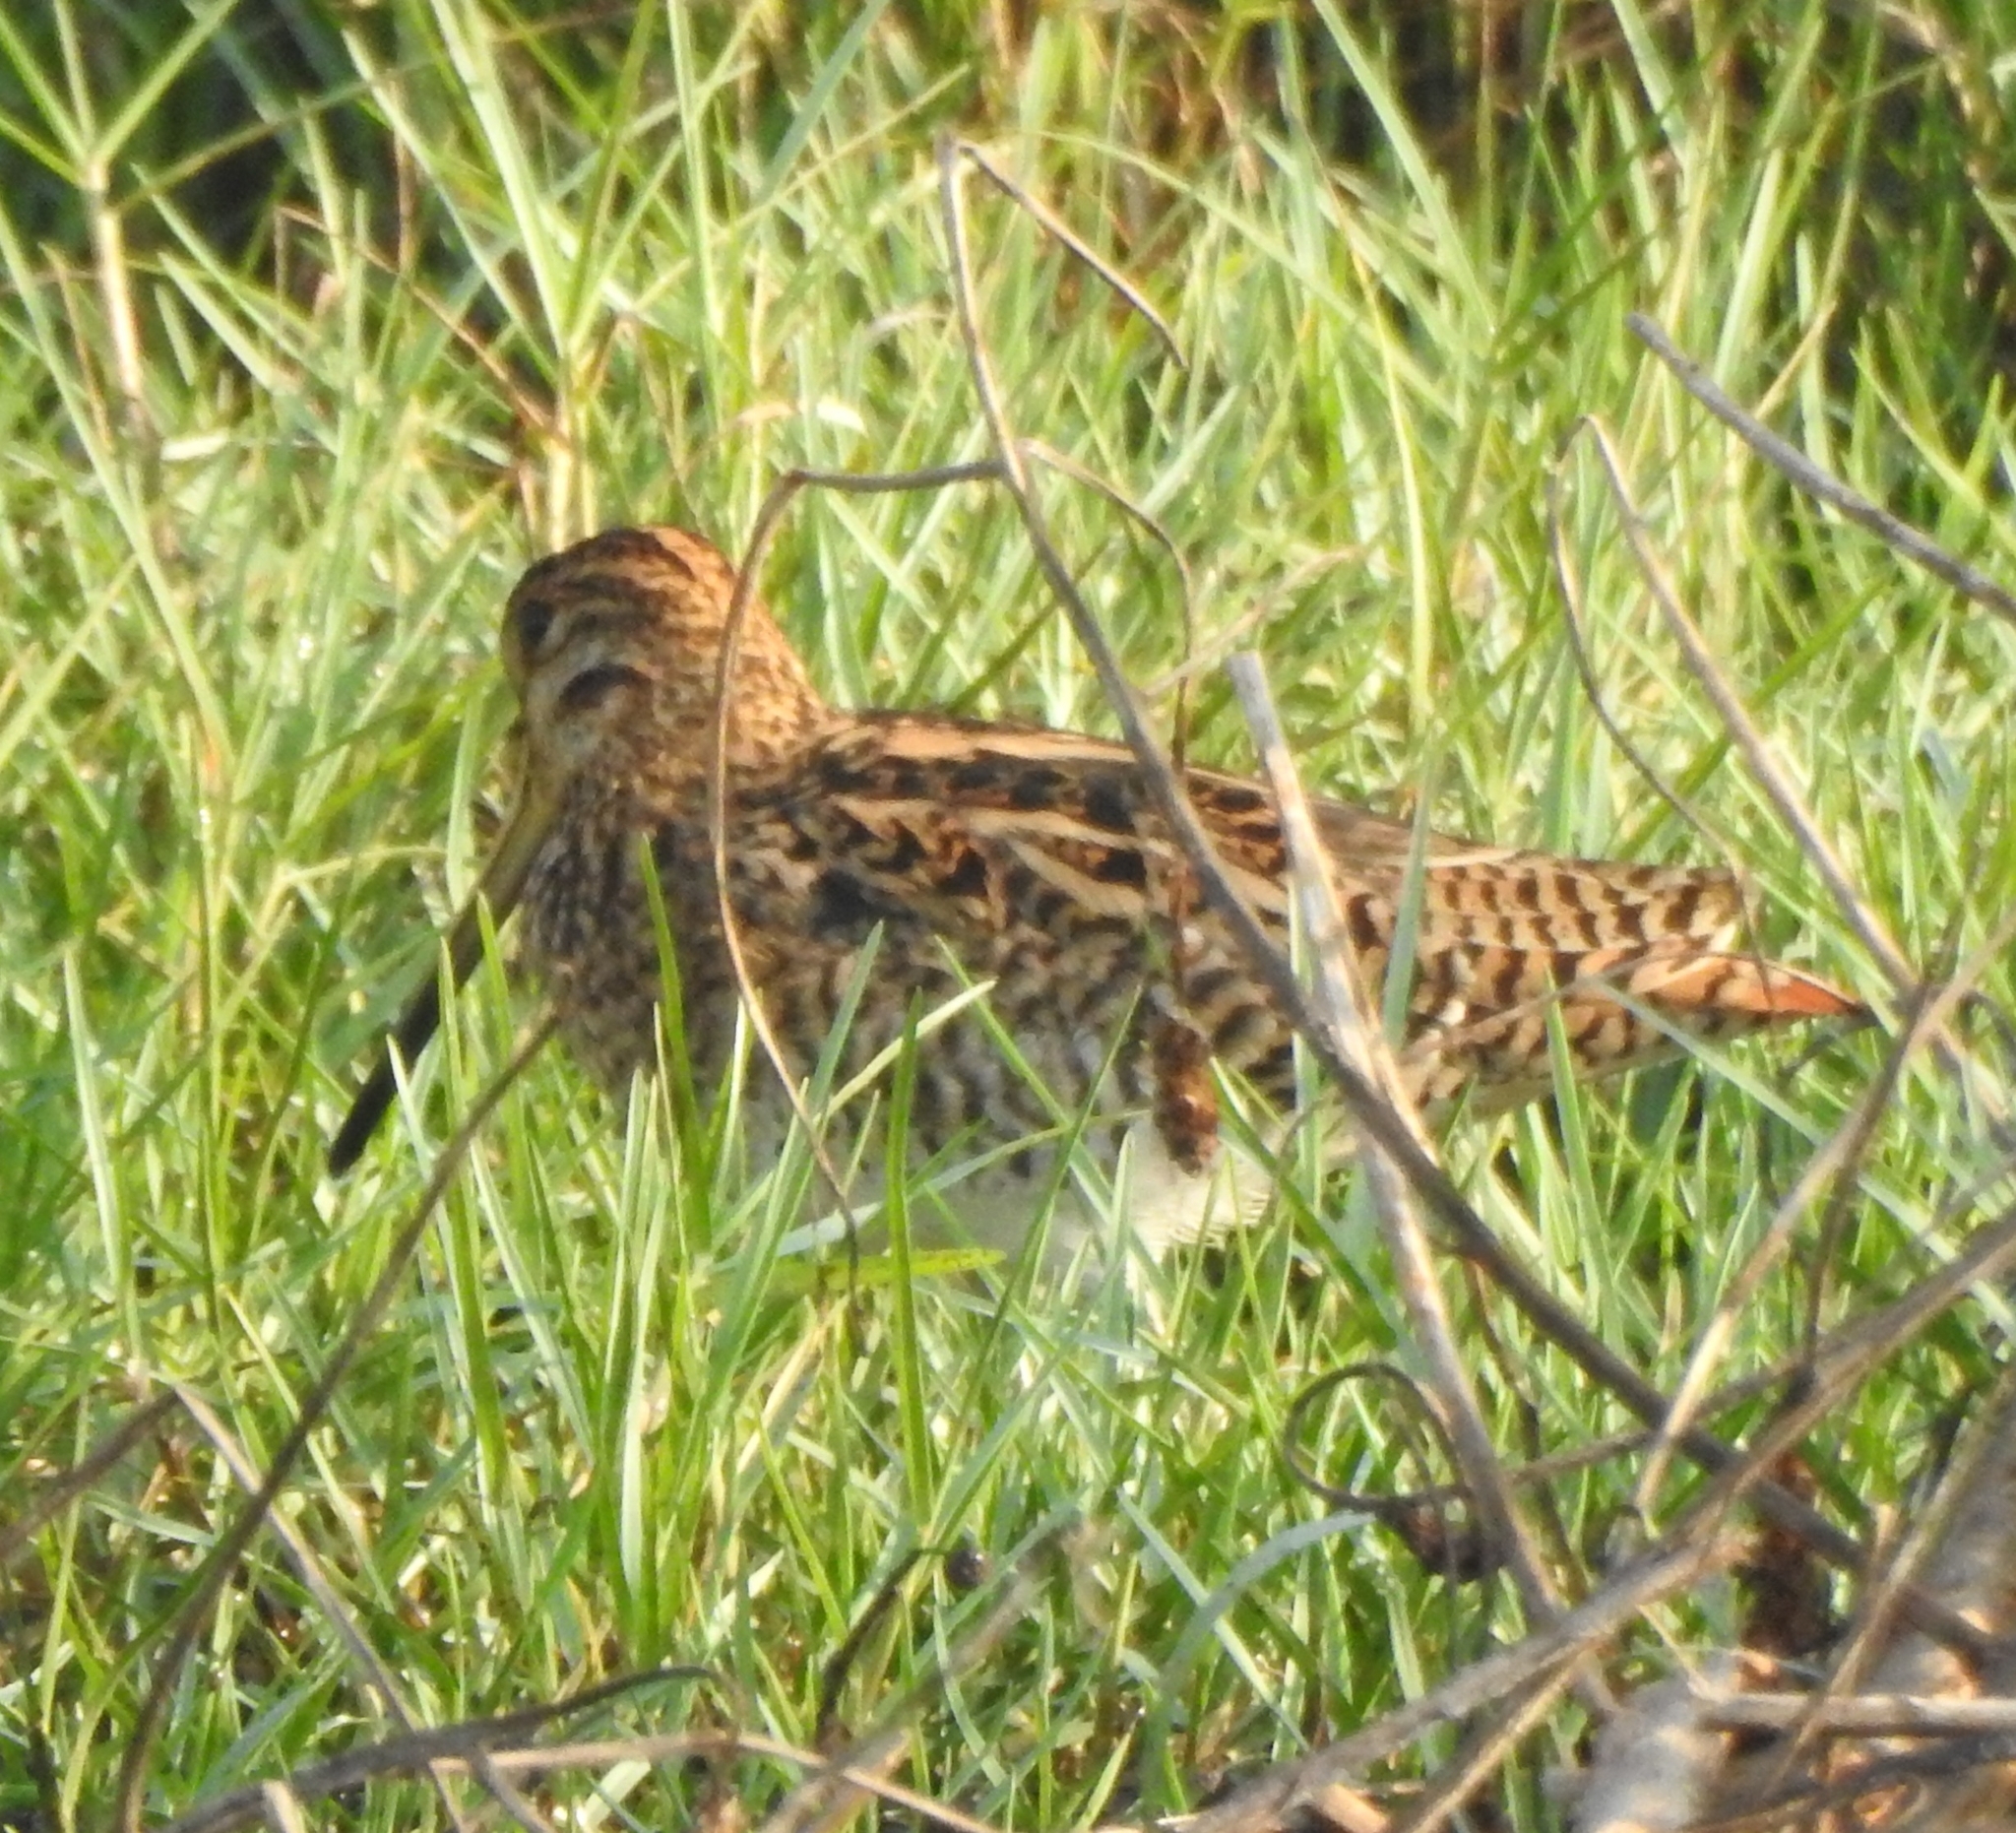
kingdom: Animalia
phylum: Chordata
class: Aves
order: Charadriiformes
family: Scolopacidae
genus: Gallinago
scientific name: Gallinago stenura
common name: Pin-tailed snipe
